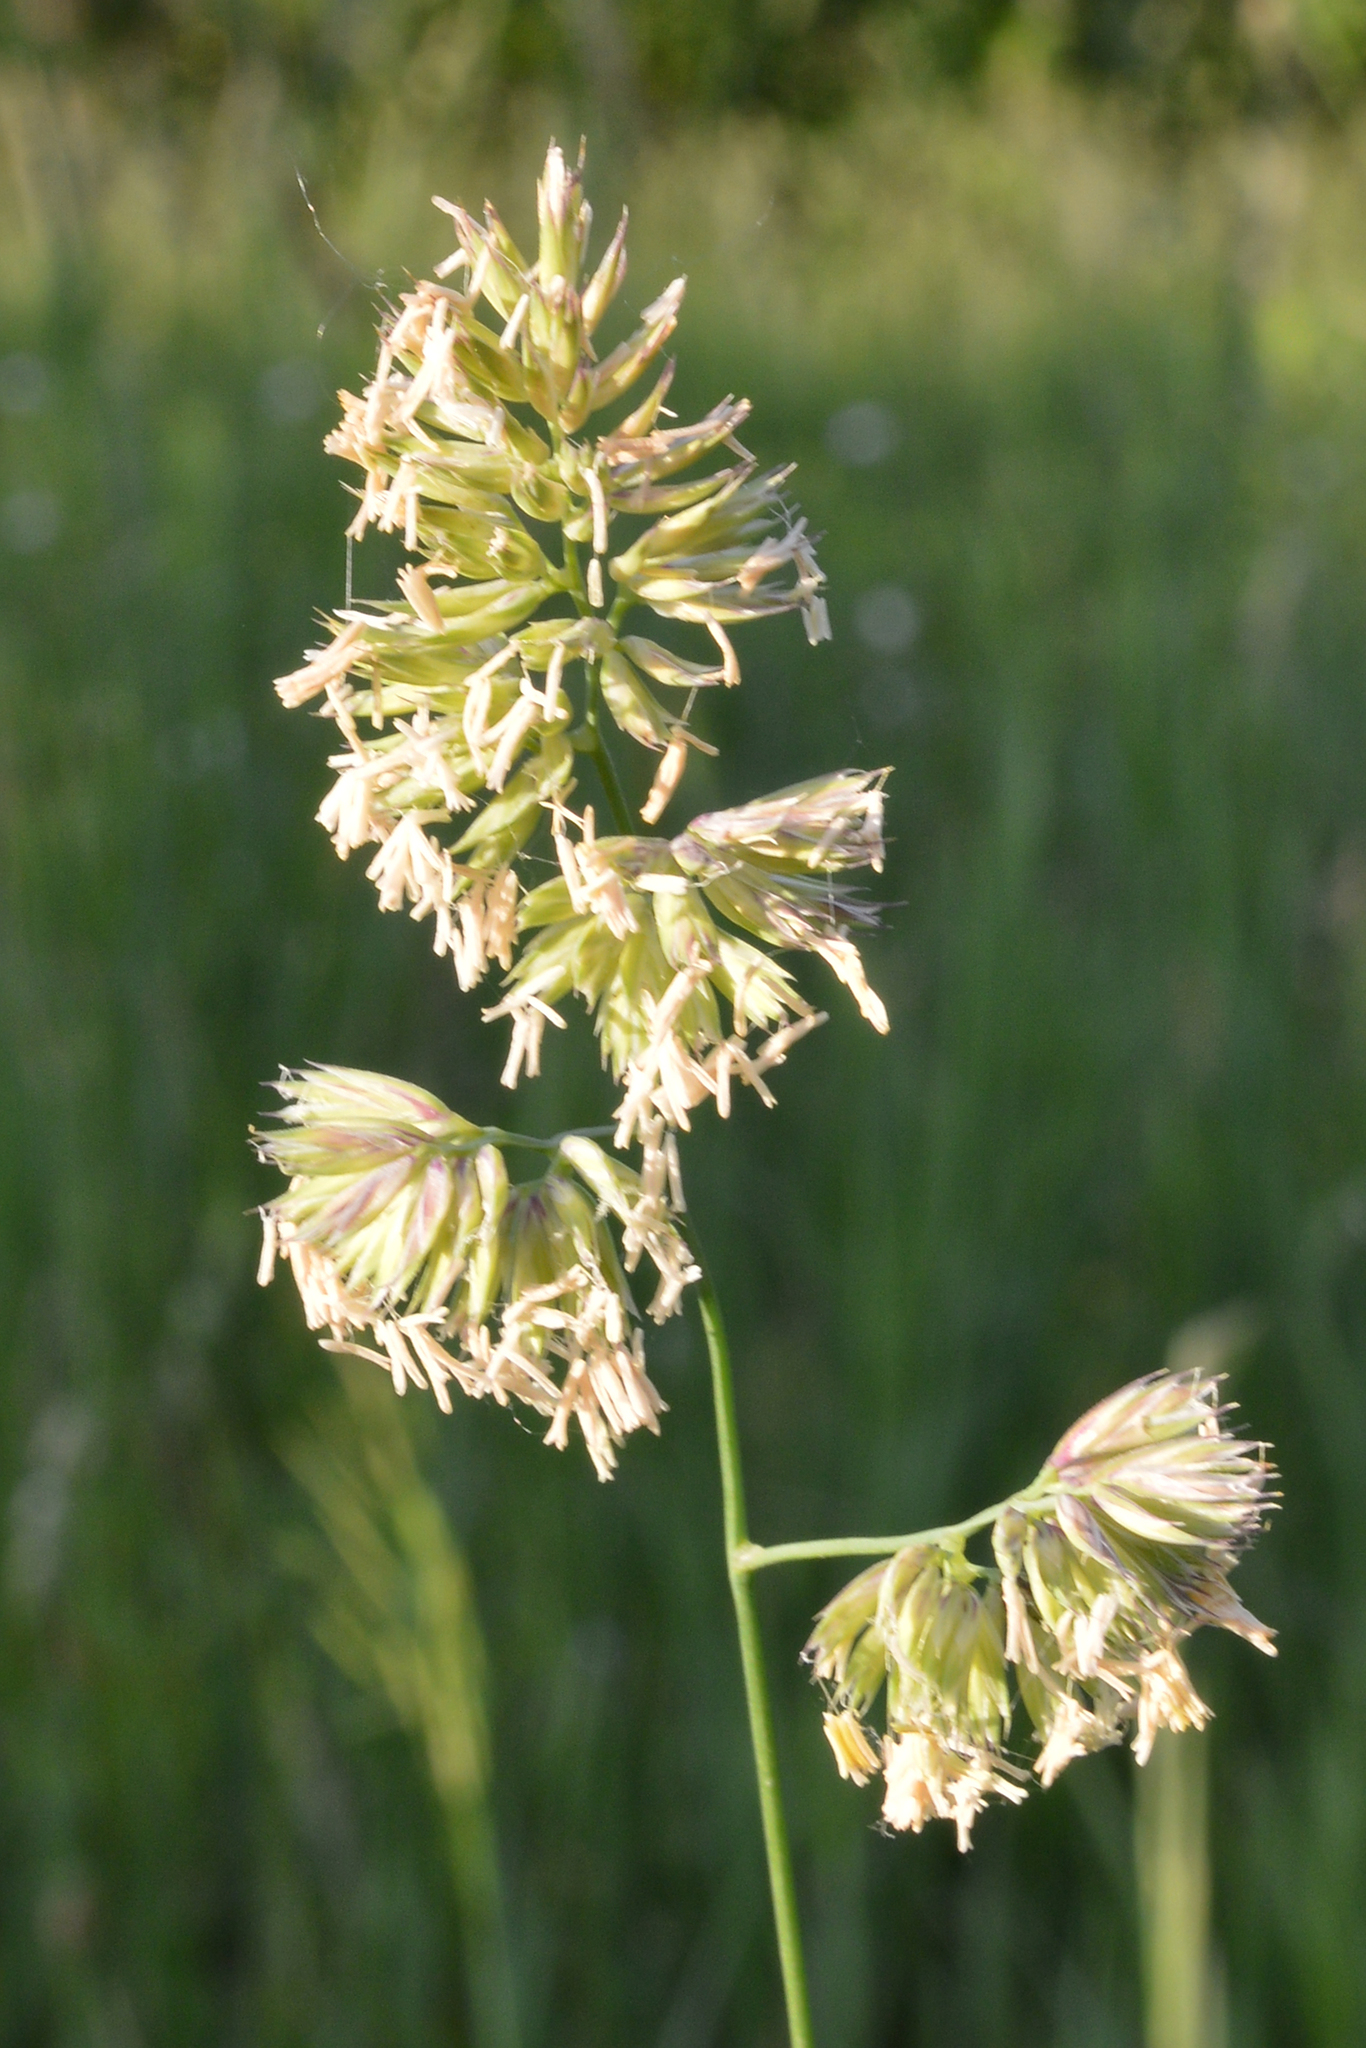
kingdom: Plantae
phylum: Tracheophyta
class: Liliopsida
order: Poales
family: Poaceae
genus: Dactylis
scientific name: Dactylis glomerata
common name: Orchardgrass
